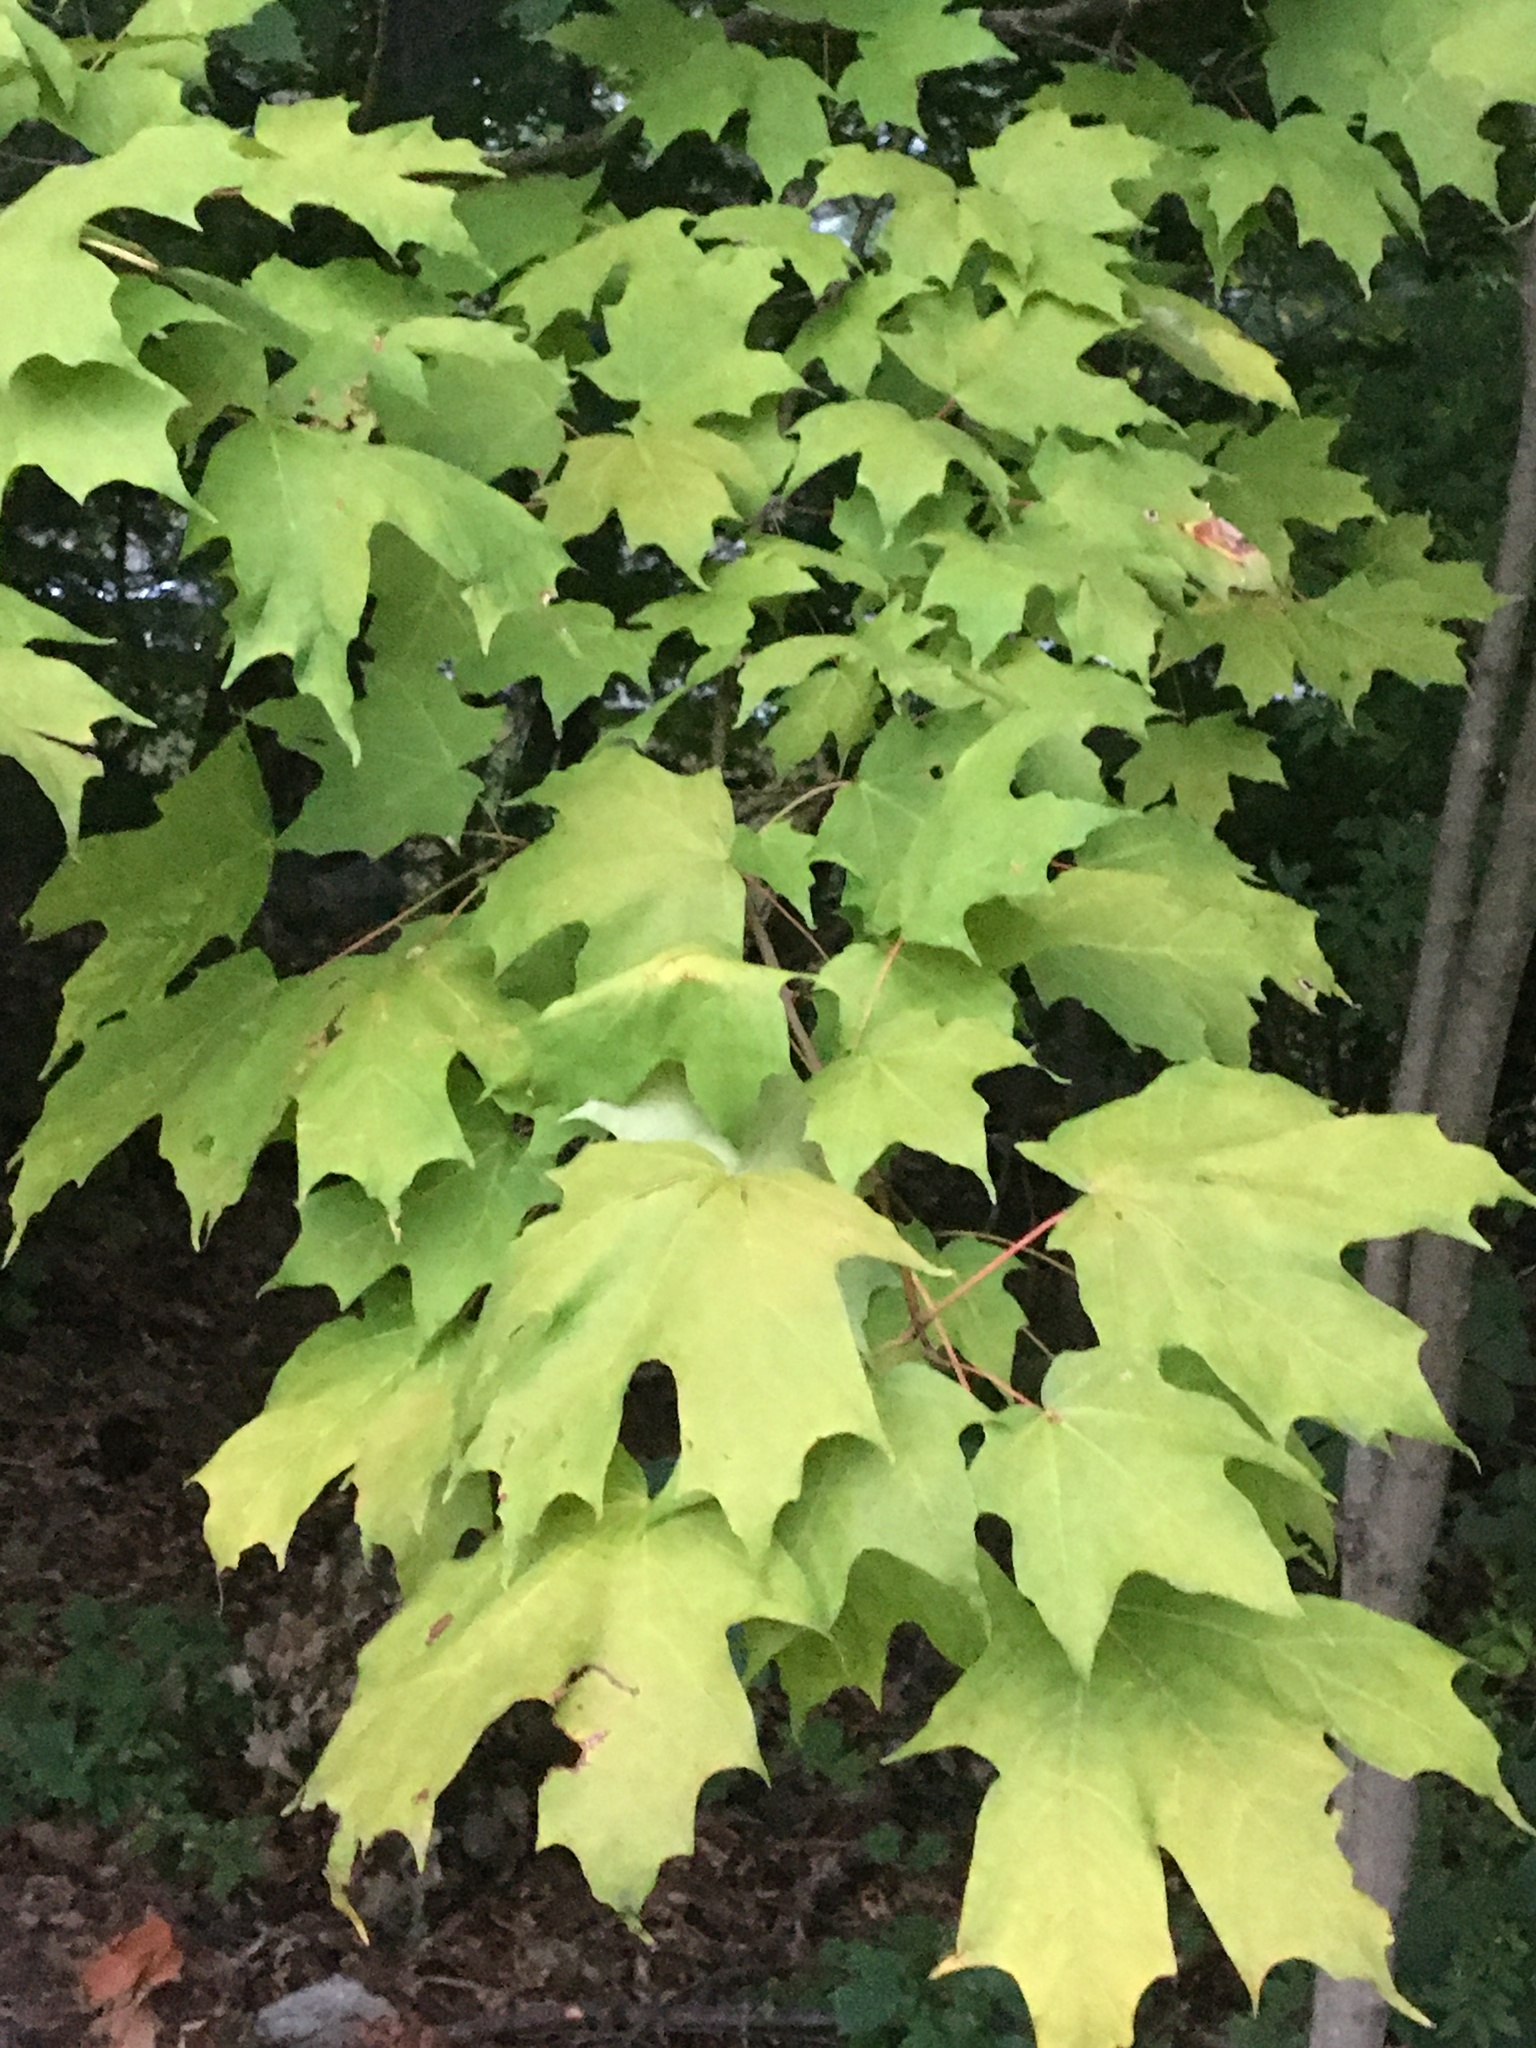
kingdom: Plantae
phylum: Tracheophyta
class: Magnoliopsida
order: Sapindales
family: Sapindaceae
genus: Acer
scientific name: Acer saccharum
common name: Sugar maple
